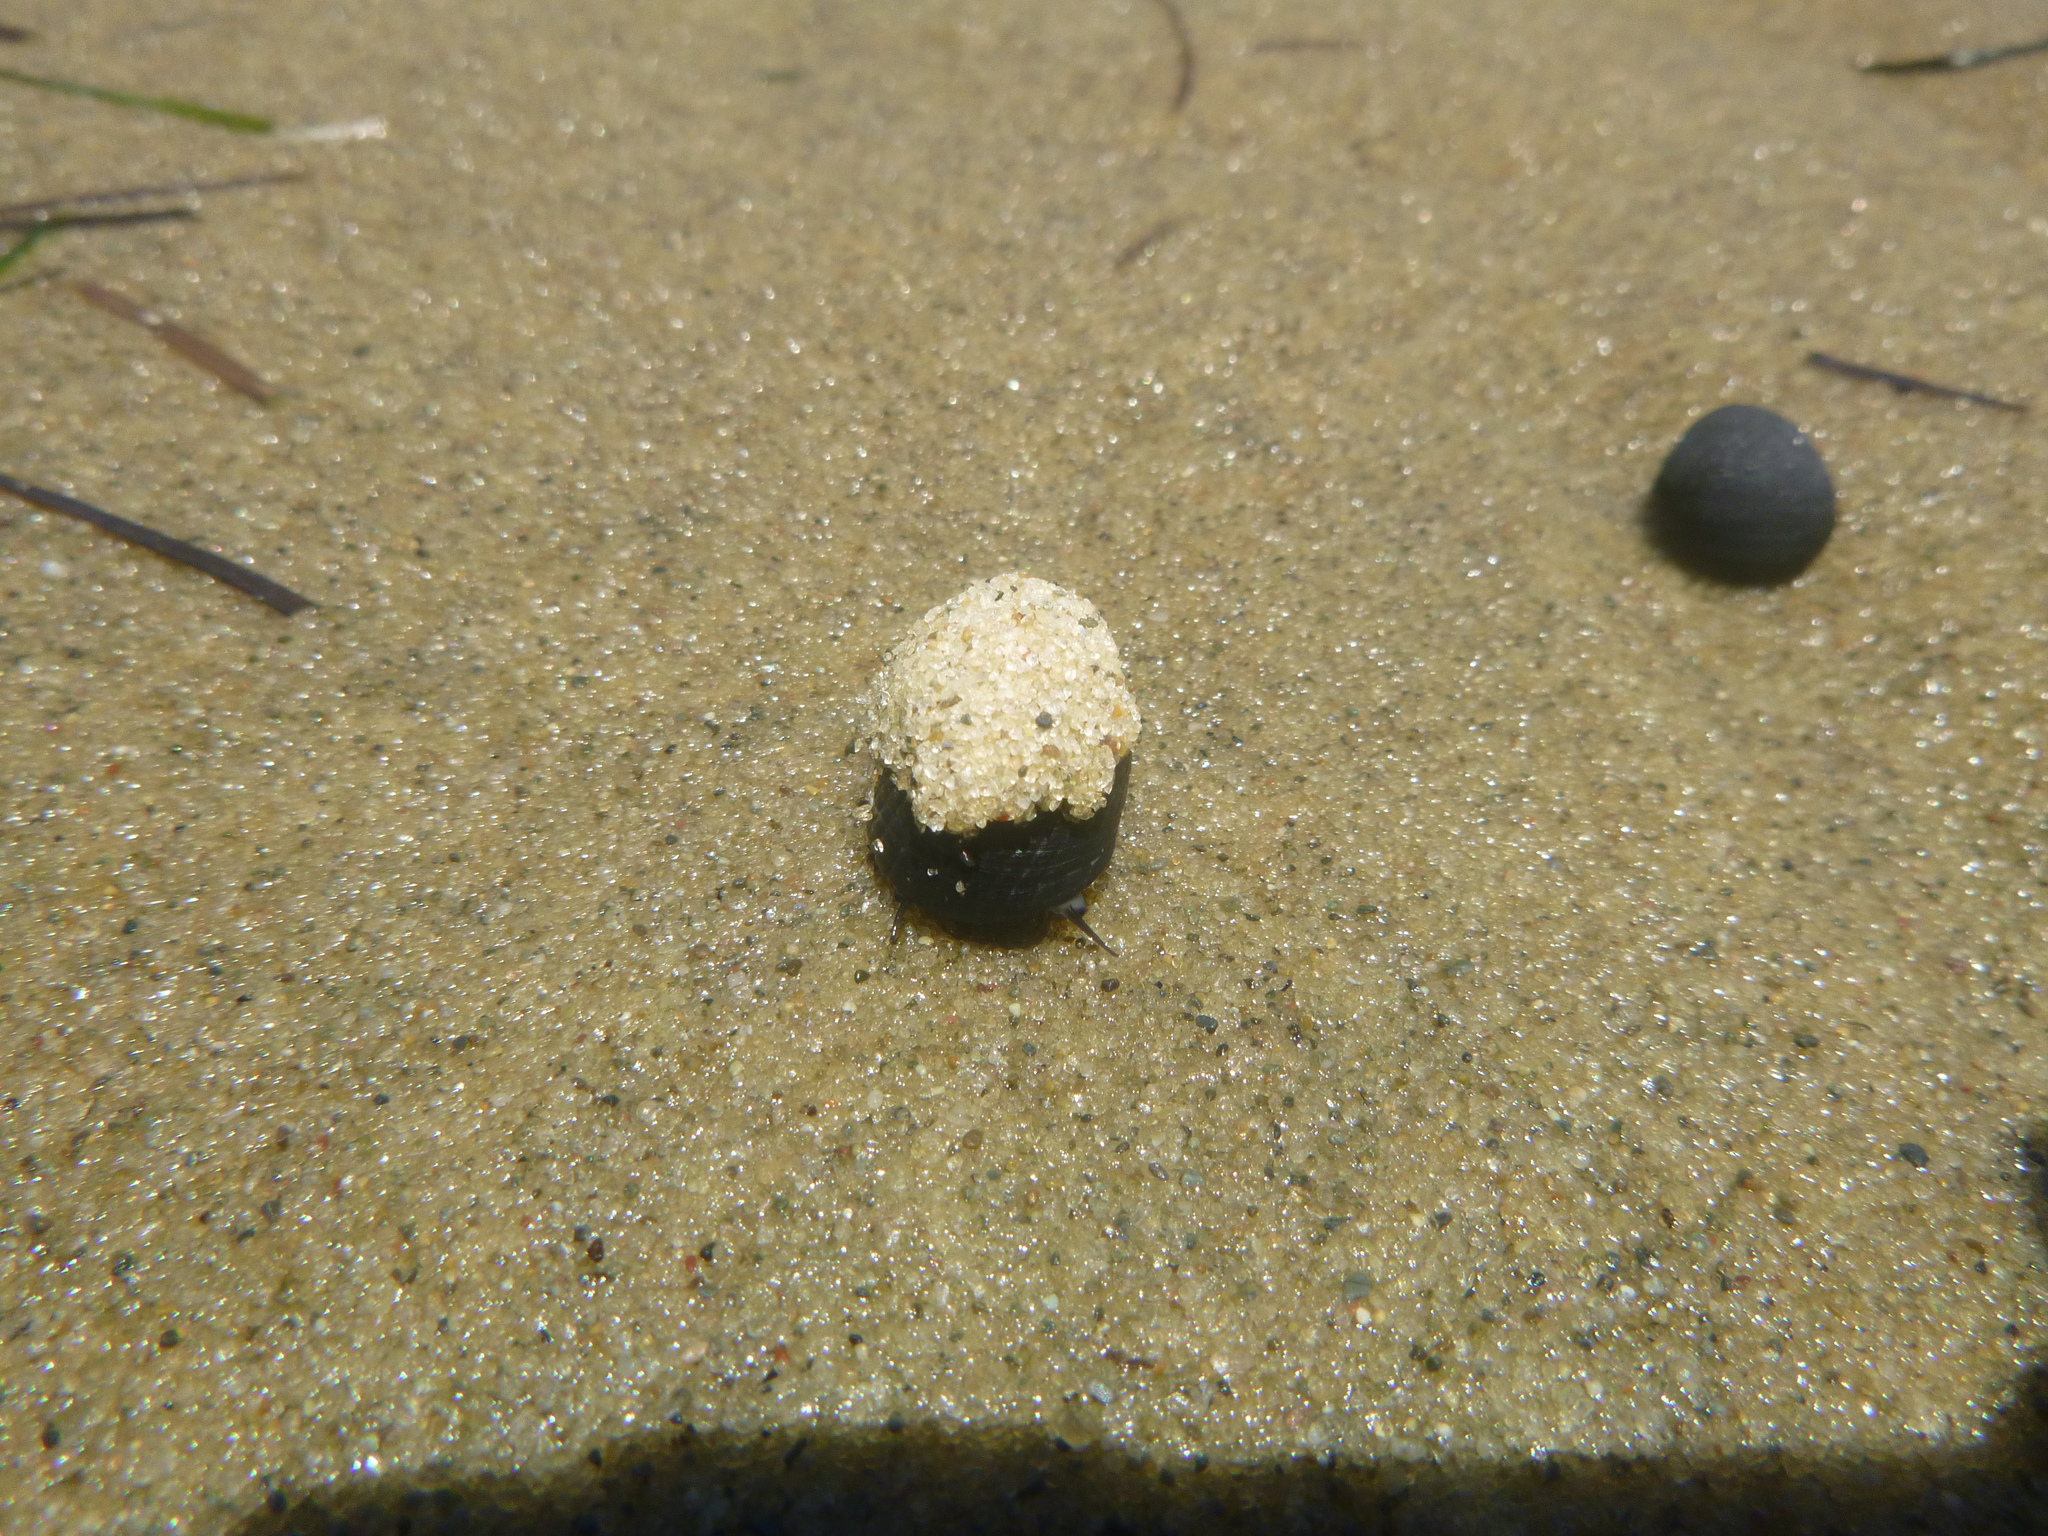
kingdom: Animalia
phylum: Mollusca
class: Gastropoda
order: Cycloneritida
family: Neritidae
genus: Nerita
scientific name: Nerita melanotragus
